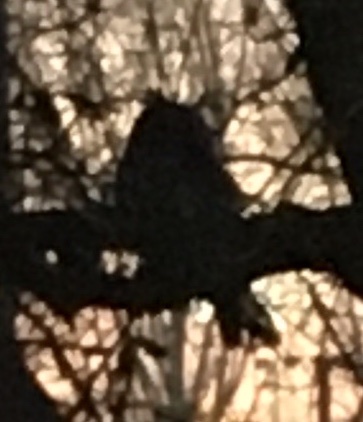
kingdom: Animalia
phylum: Chordata
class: Aves
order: Strigiformes
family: Strigidae
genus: Asio
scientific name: Asio otus
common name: Long-eared owl
